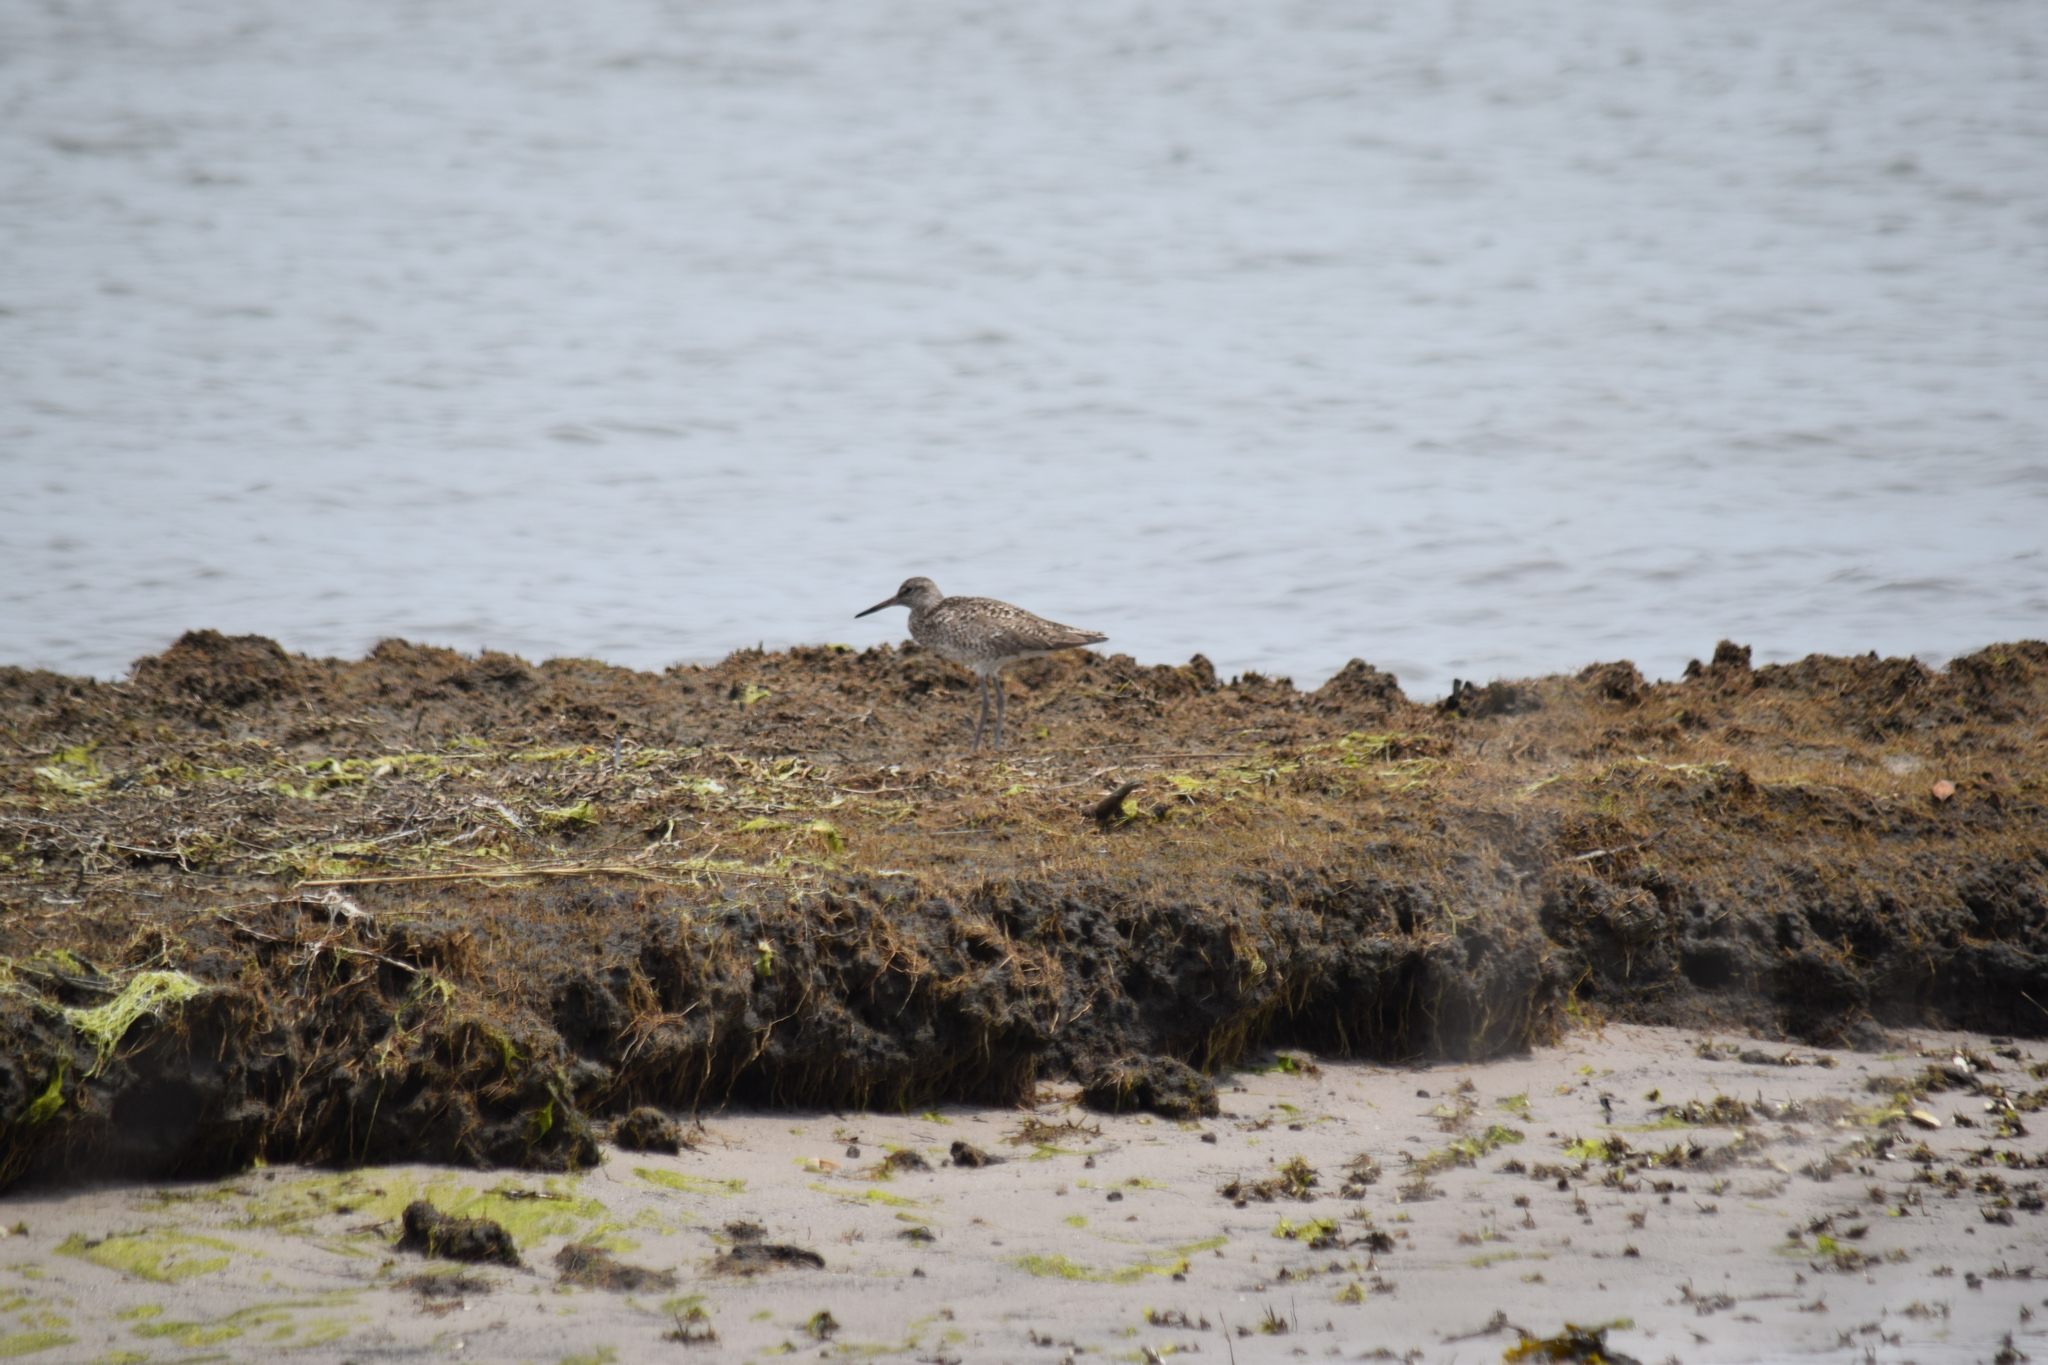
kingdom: Animalia
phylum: Chordata
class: Aves
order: Charadriiformes
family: Scolopacidae
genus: Tringa
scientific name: Tringa semipalmata
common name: Willet
